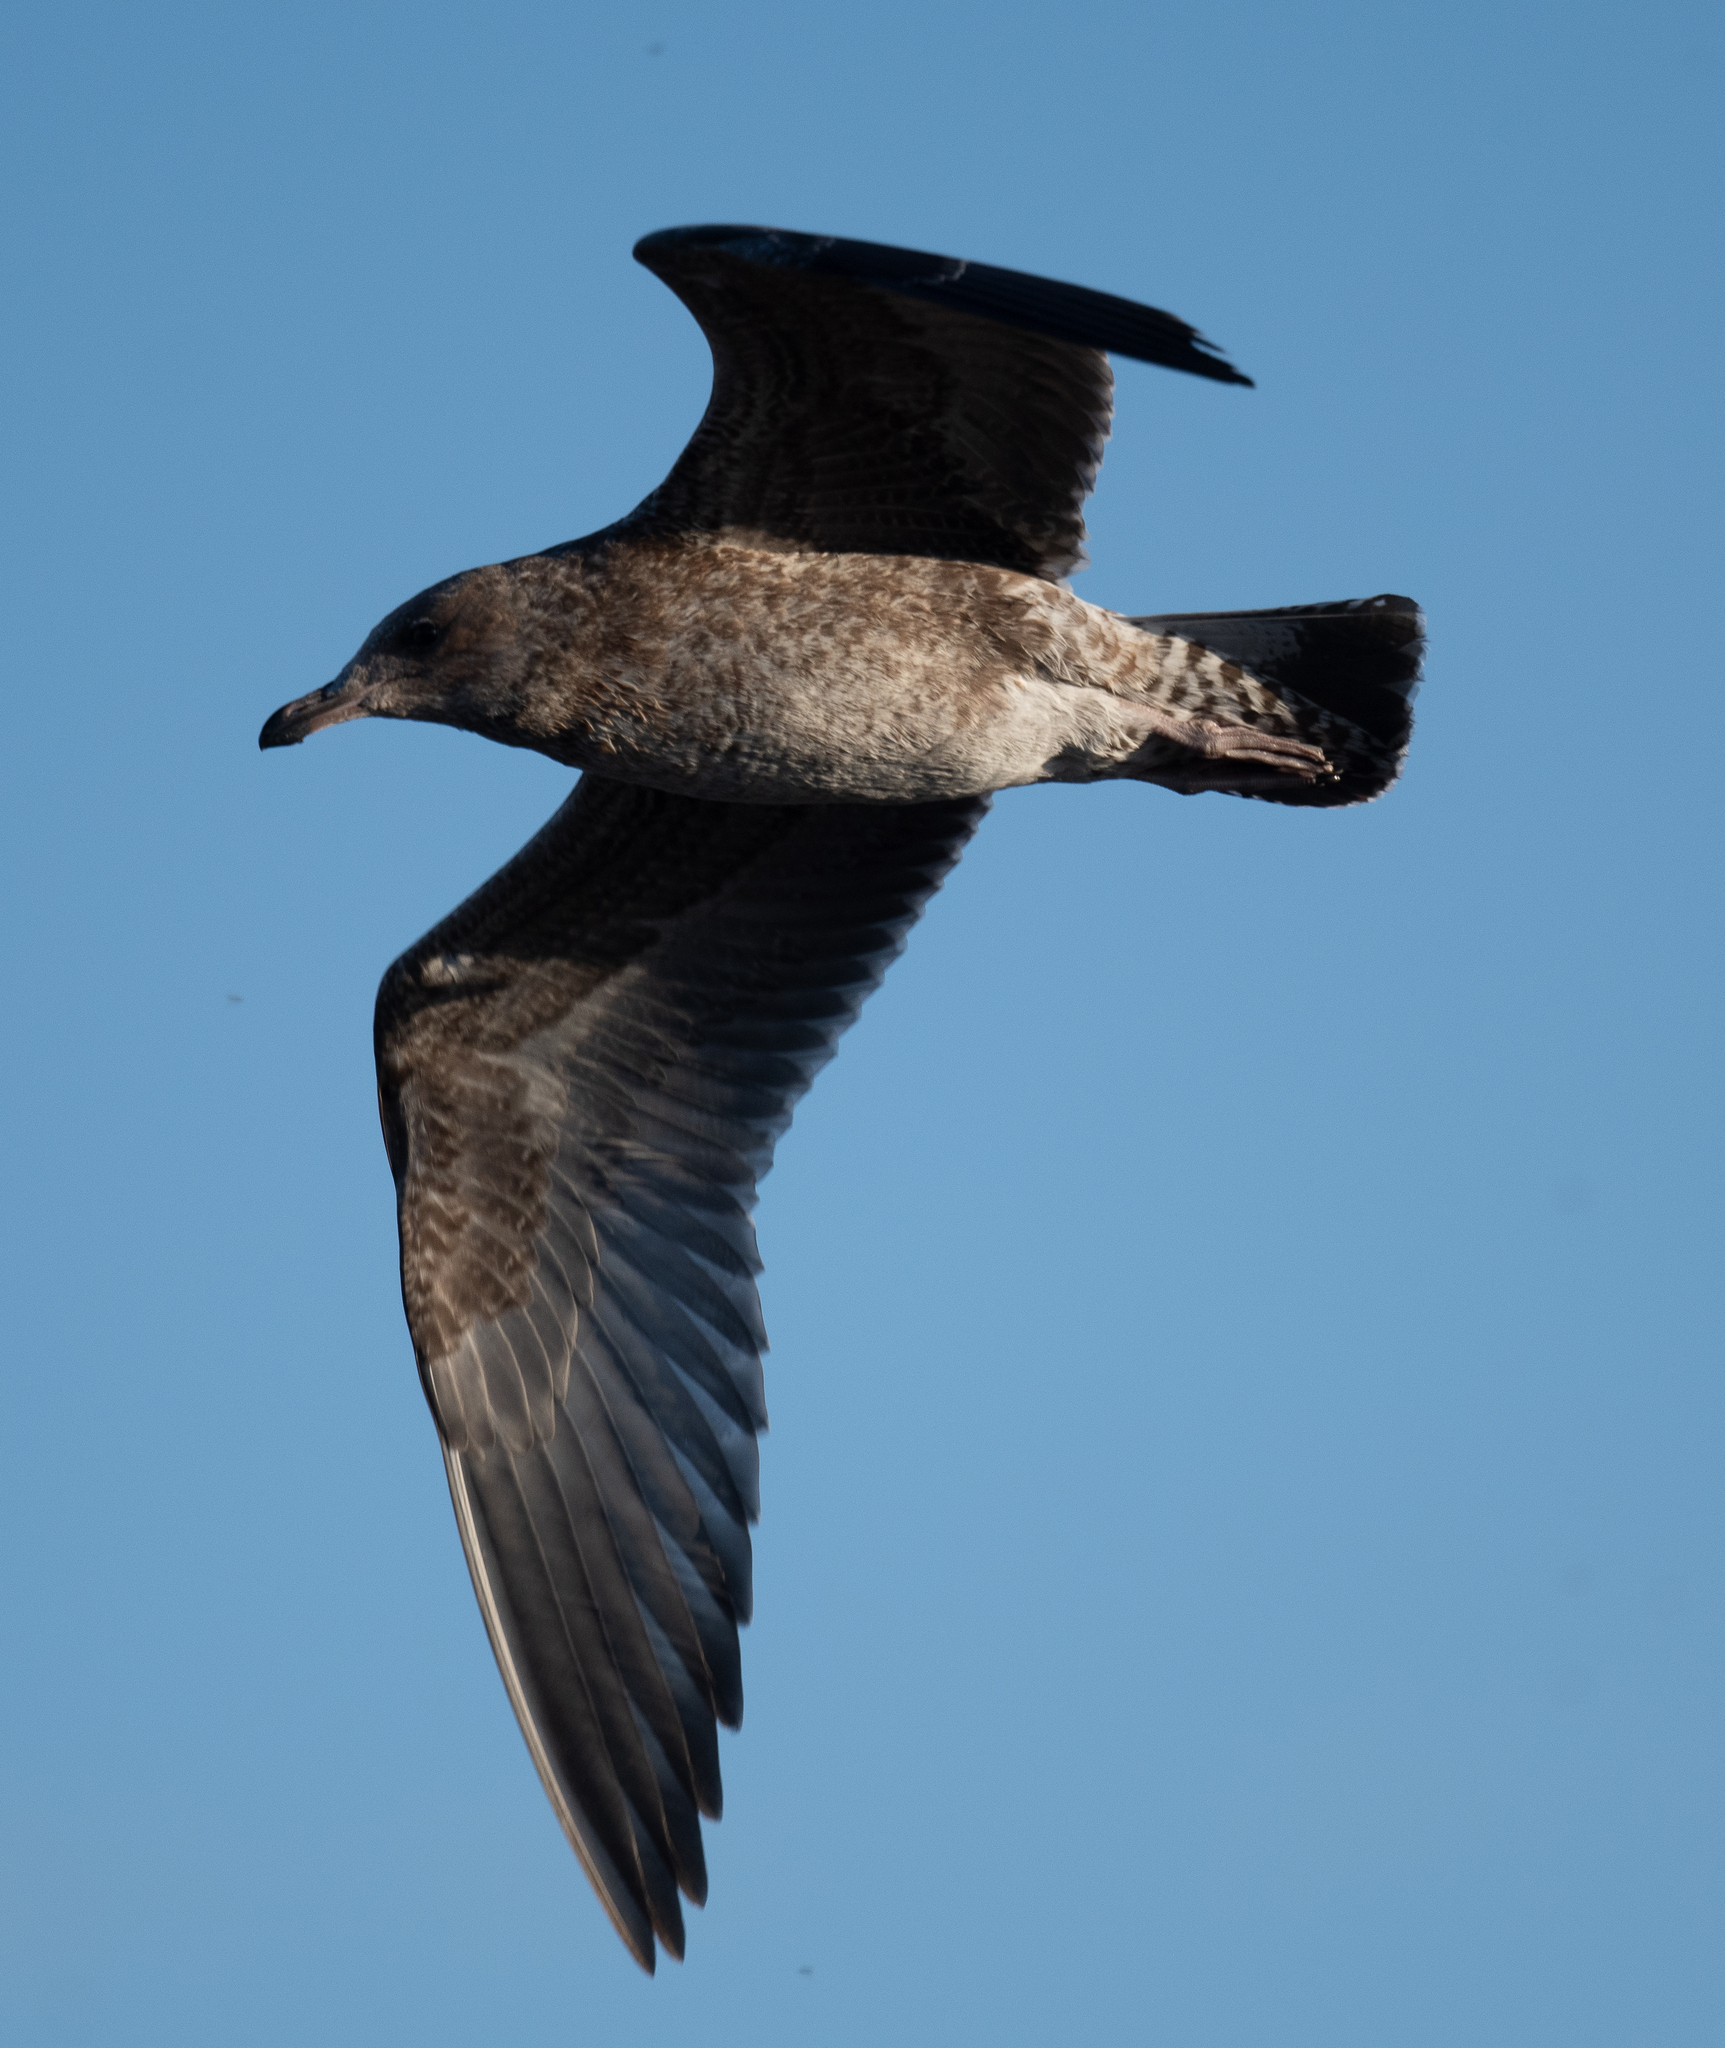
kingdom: Animalia
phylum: Chordata
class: Aves
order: Charadriiformes
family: Laridae
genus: Larus
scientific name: Larus californicus
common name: California gull
